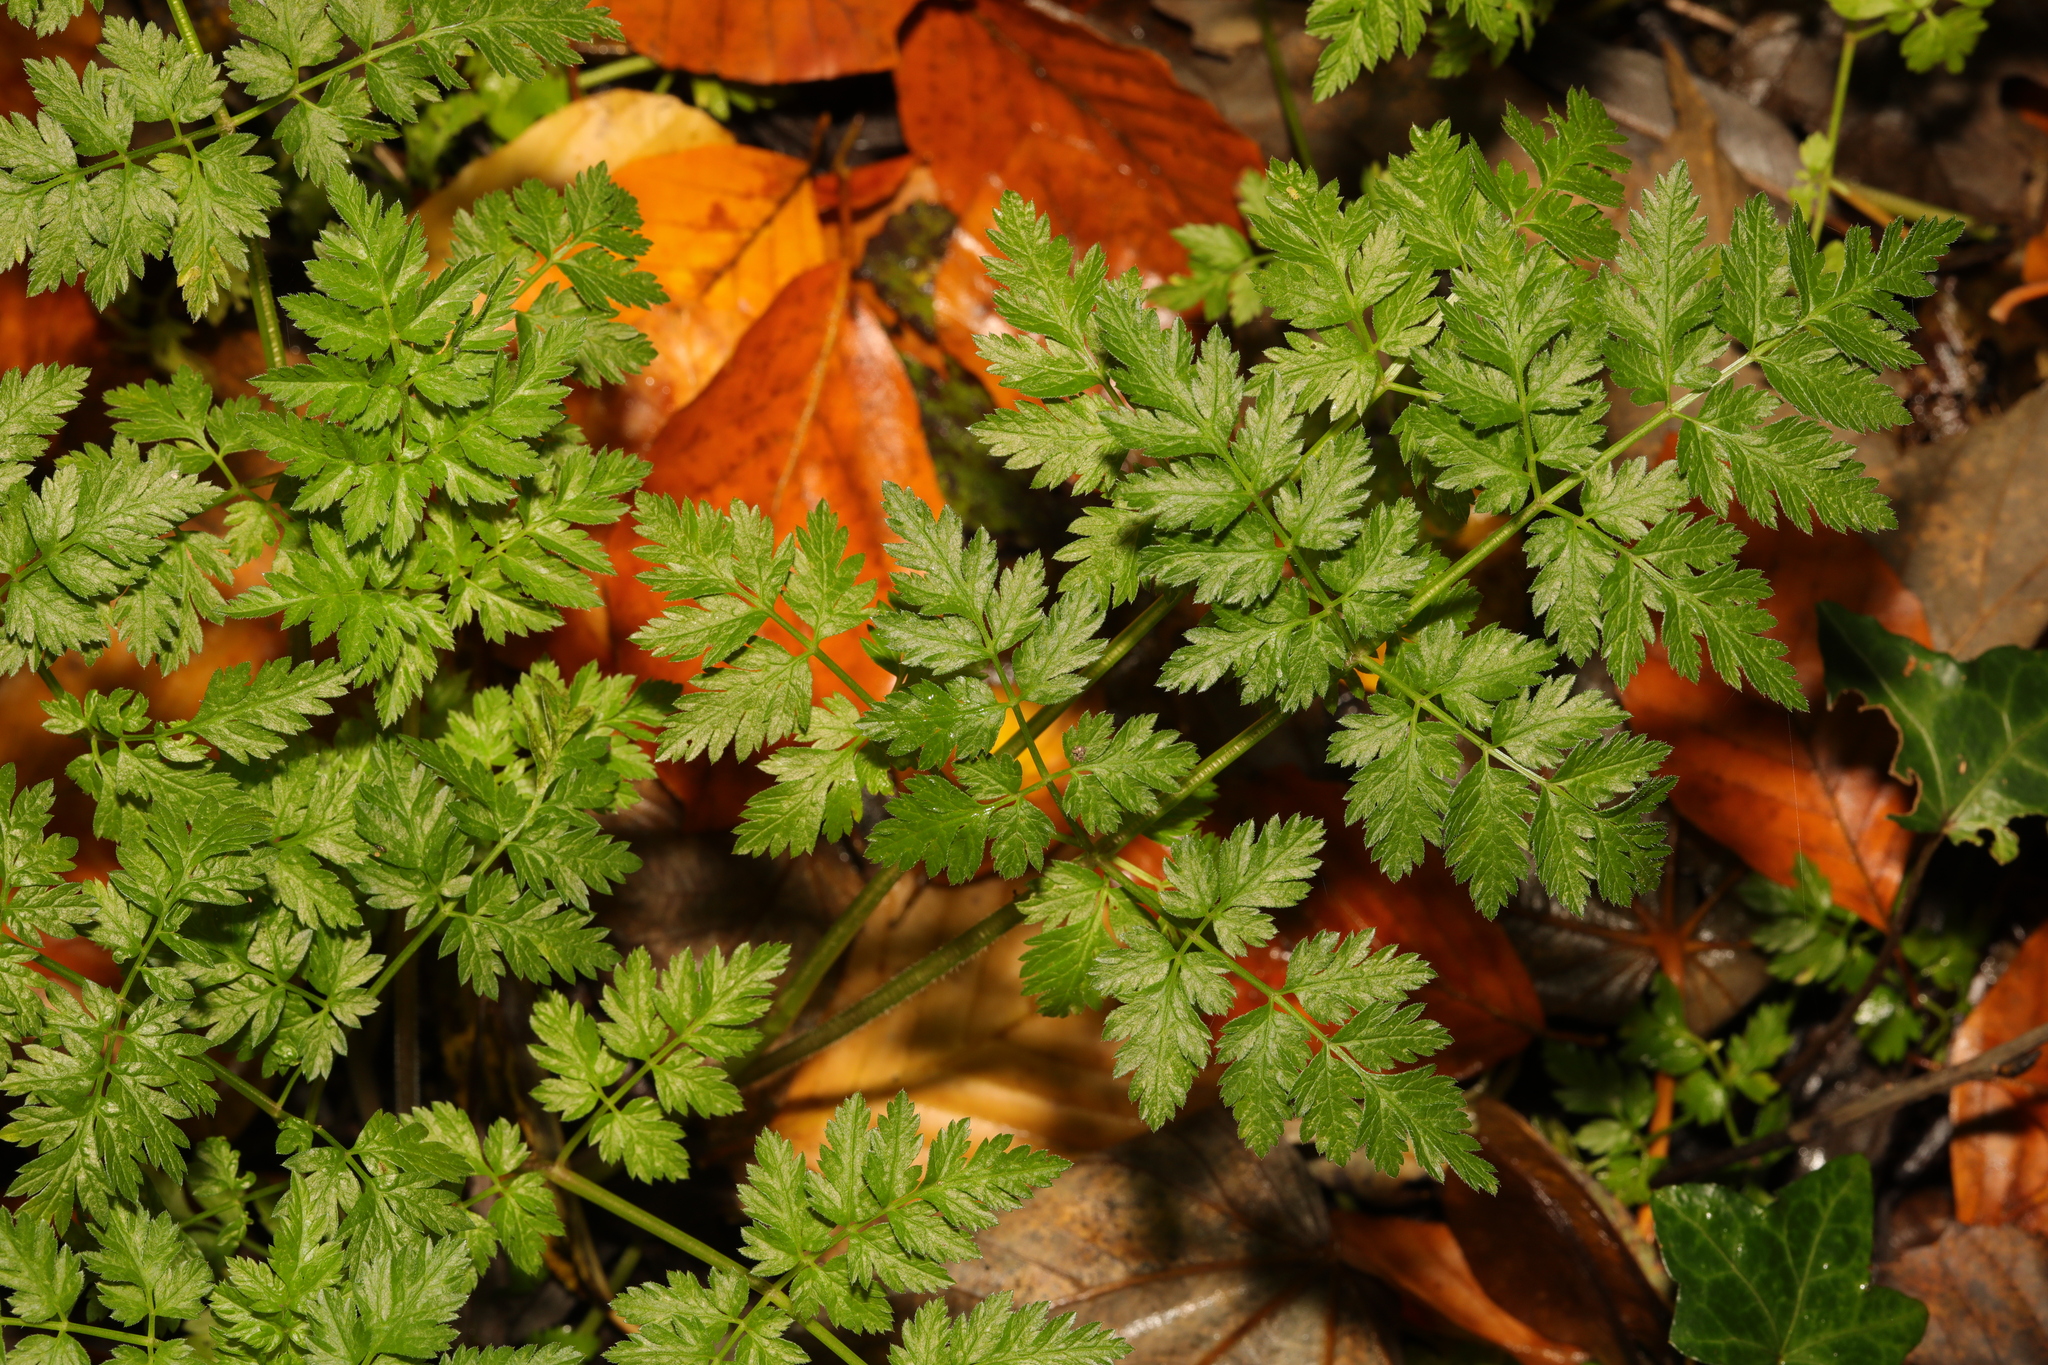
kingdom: Plantae
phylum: Tracheophyta
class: Magnoliopsida
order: Apiales
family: Apiaceae
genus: Anthriscus
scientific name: Anthriscus sylvestris
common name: Cow parsley
